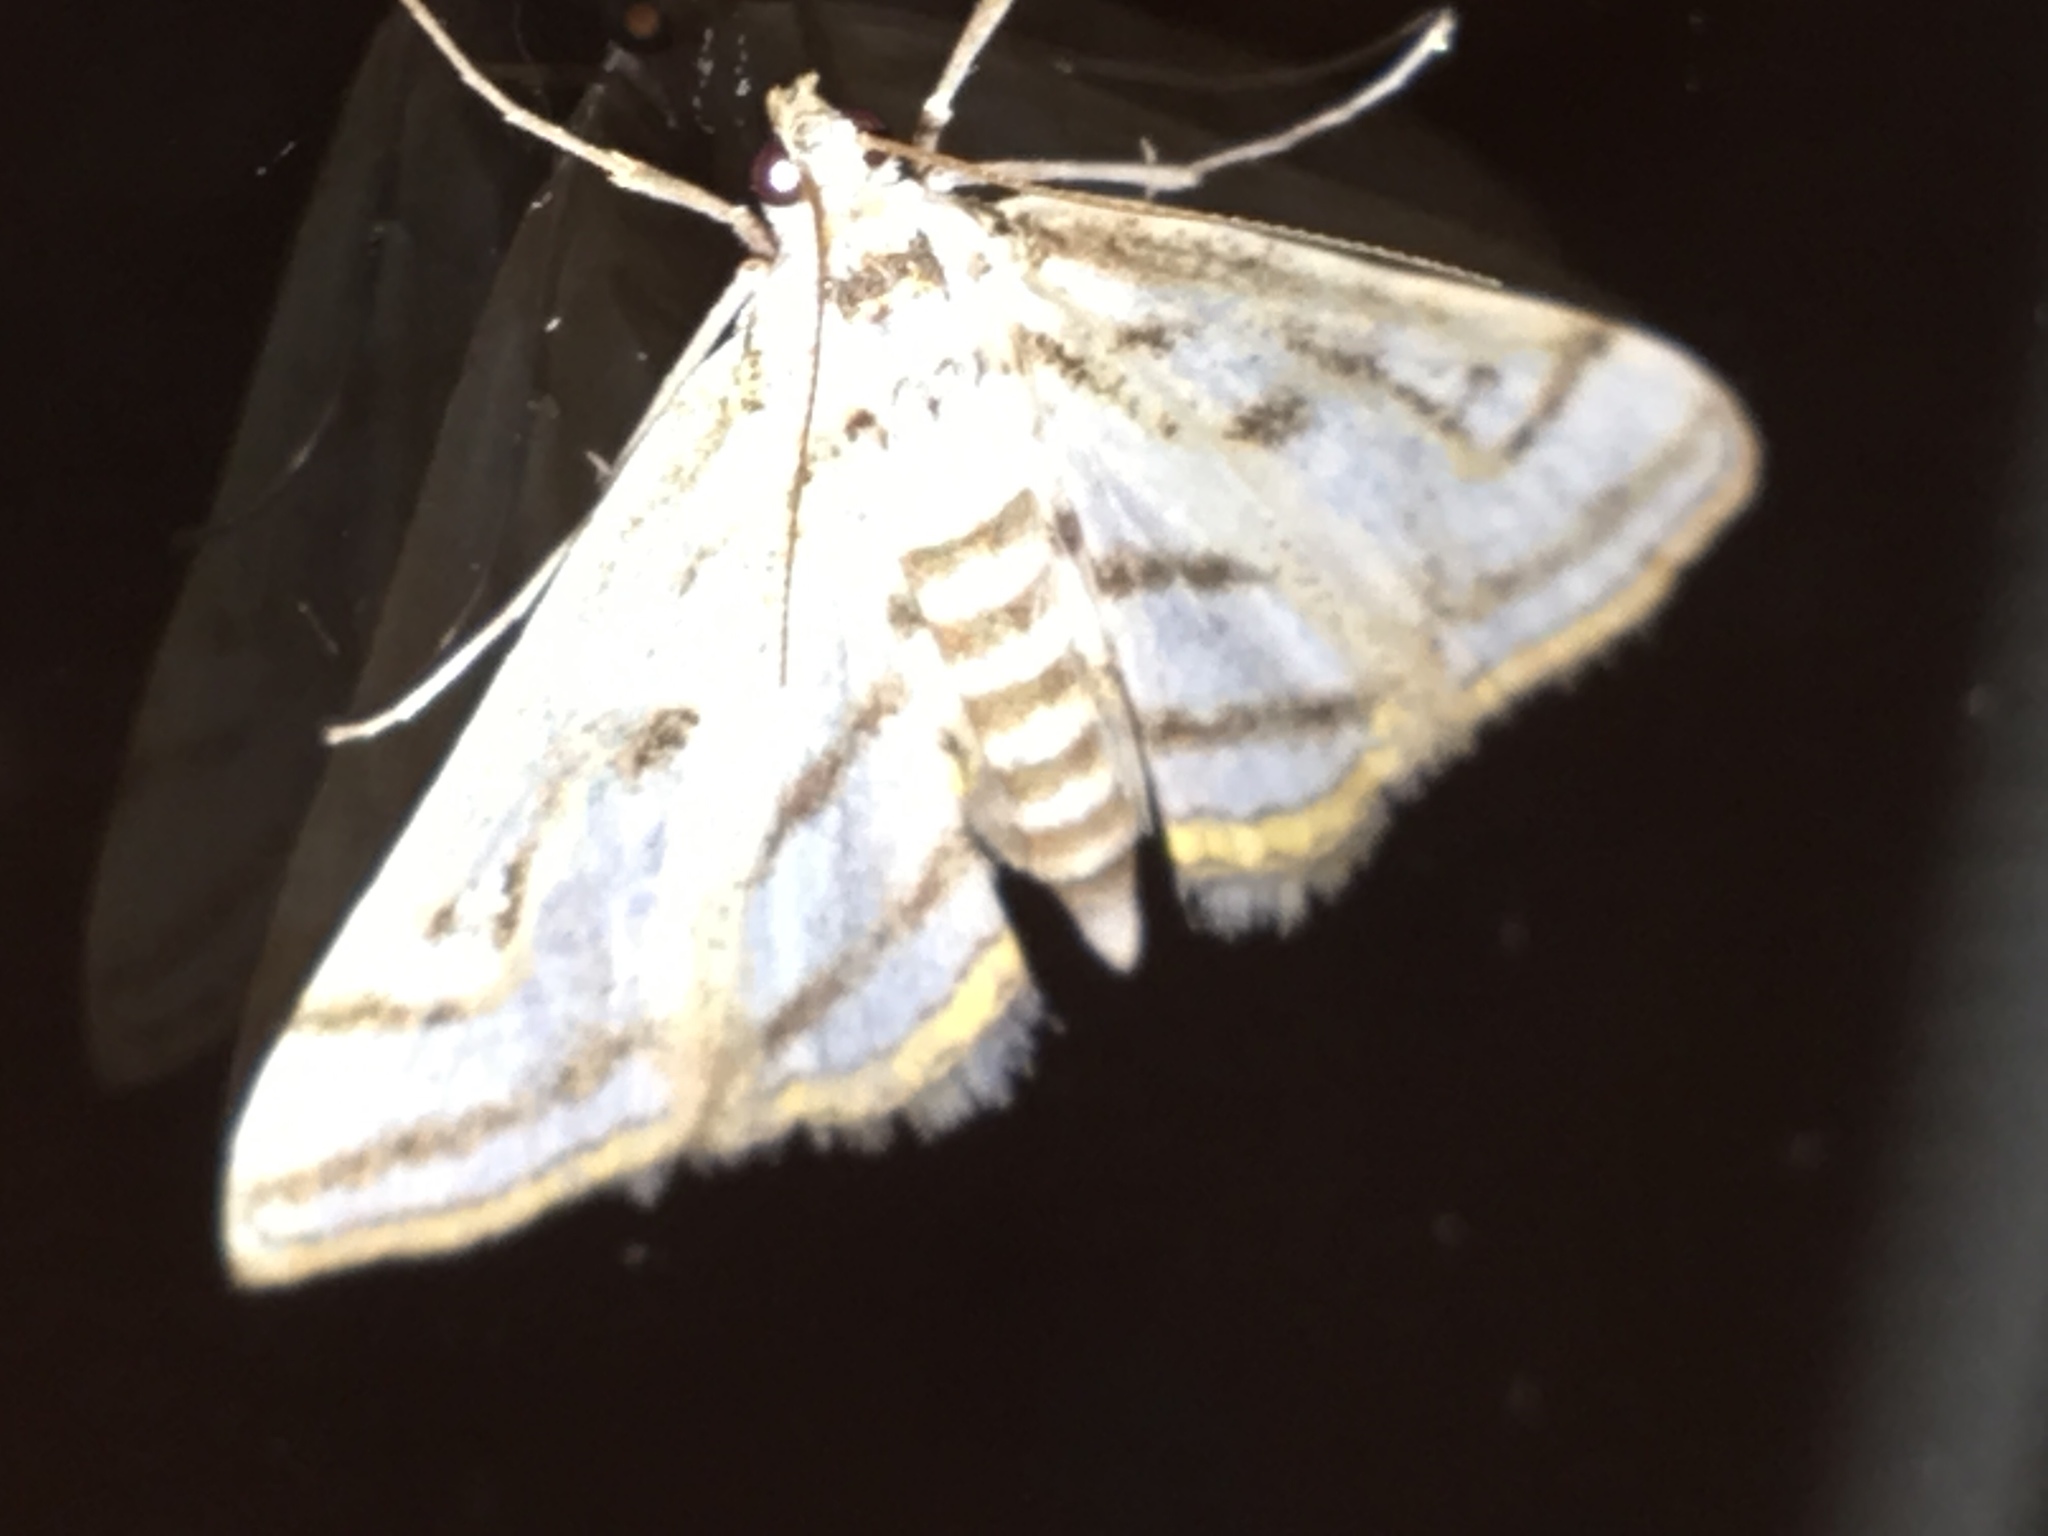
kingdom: Animalia
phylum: Arthropoda
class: Insecta
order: Lepidoptera
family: Crambidae
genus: Parapoynx
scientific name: Parapoynx badiusalis
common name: Chestnut-marked pondweed moth
